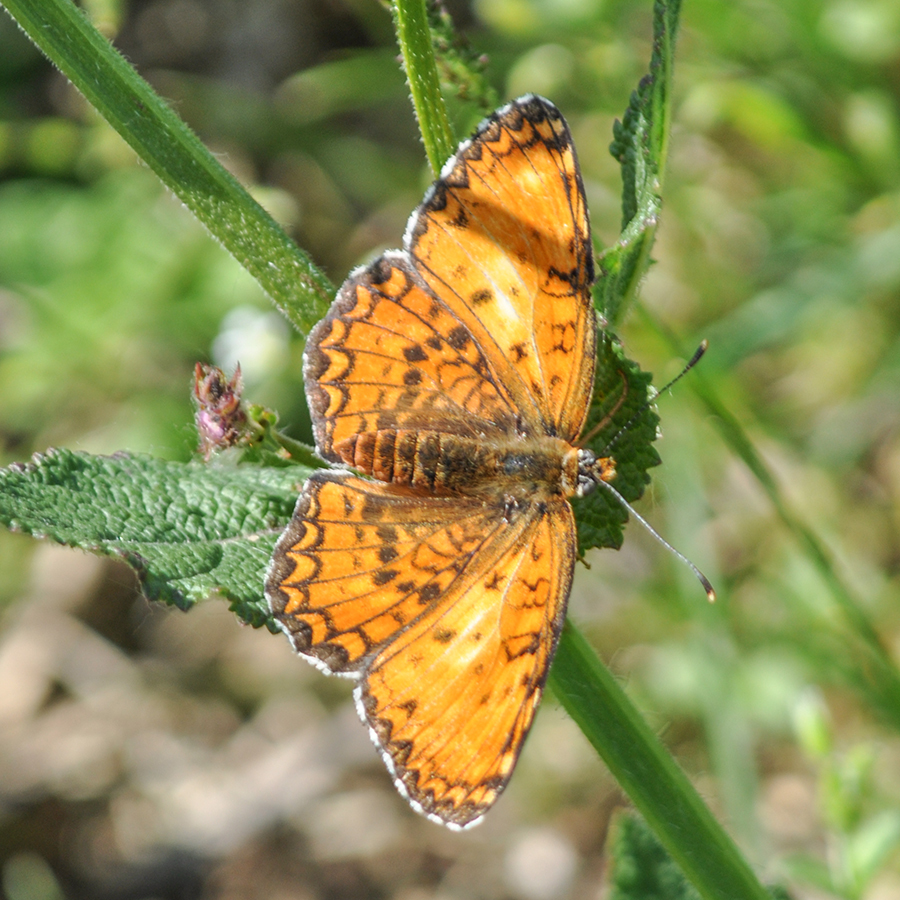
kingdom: Animalia
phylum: Arthropoda
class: Insecta
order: Lepidoptera
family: Nymphalidae
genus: Melitaea
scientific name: Melitaea phoebe
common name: Knapweed fritillary
